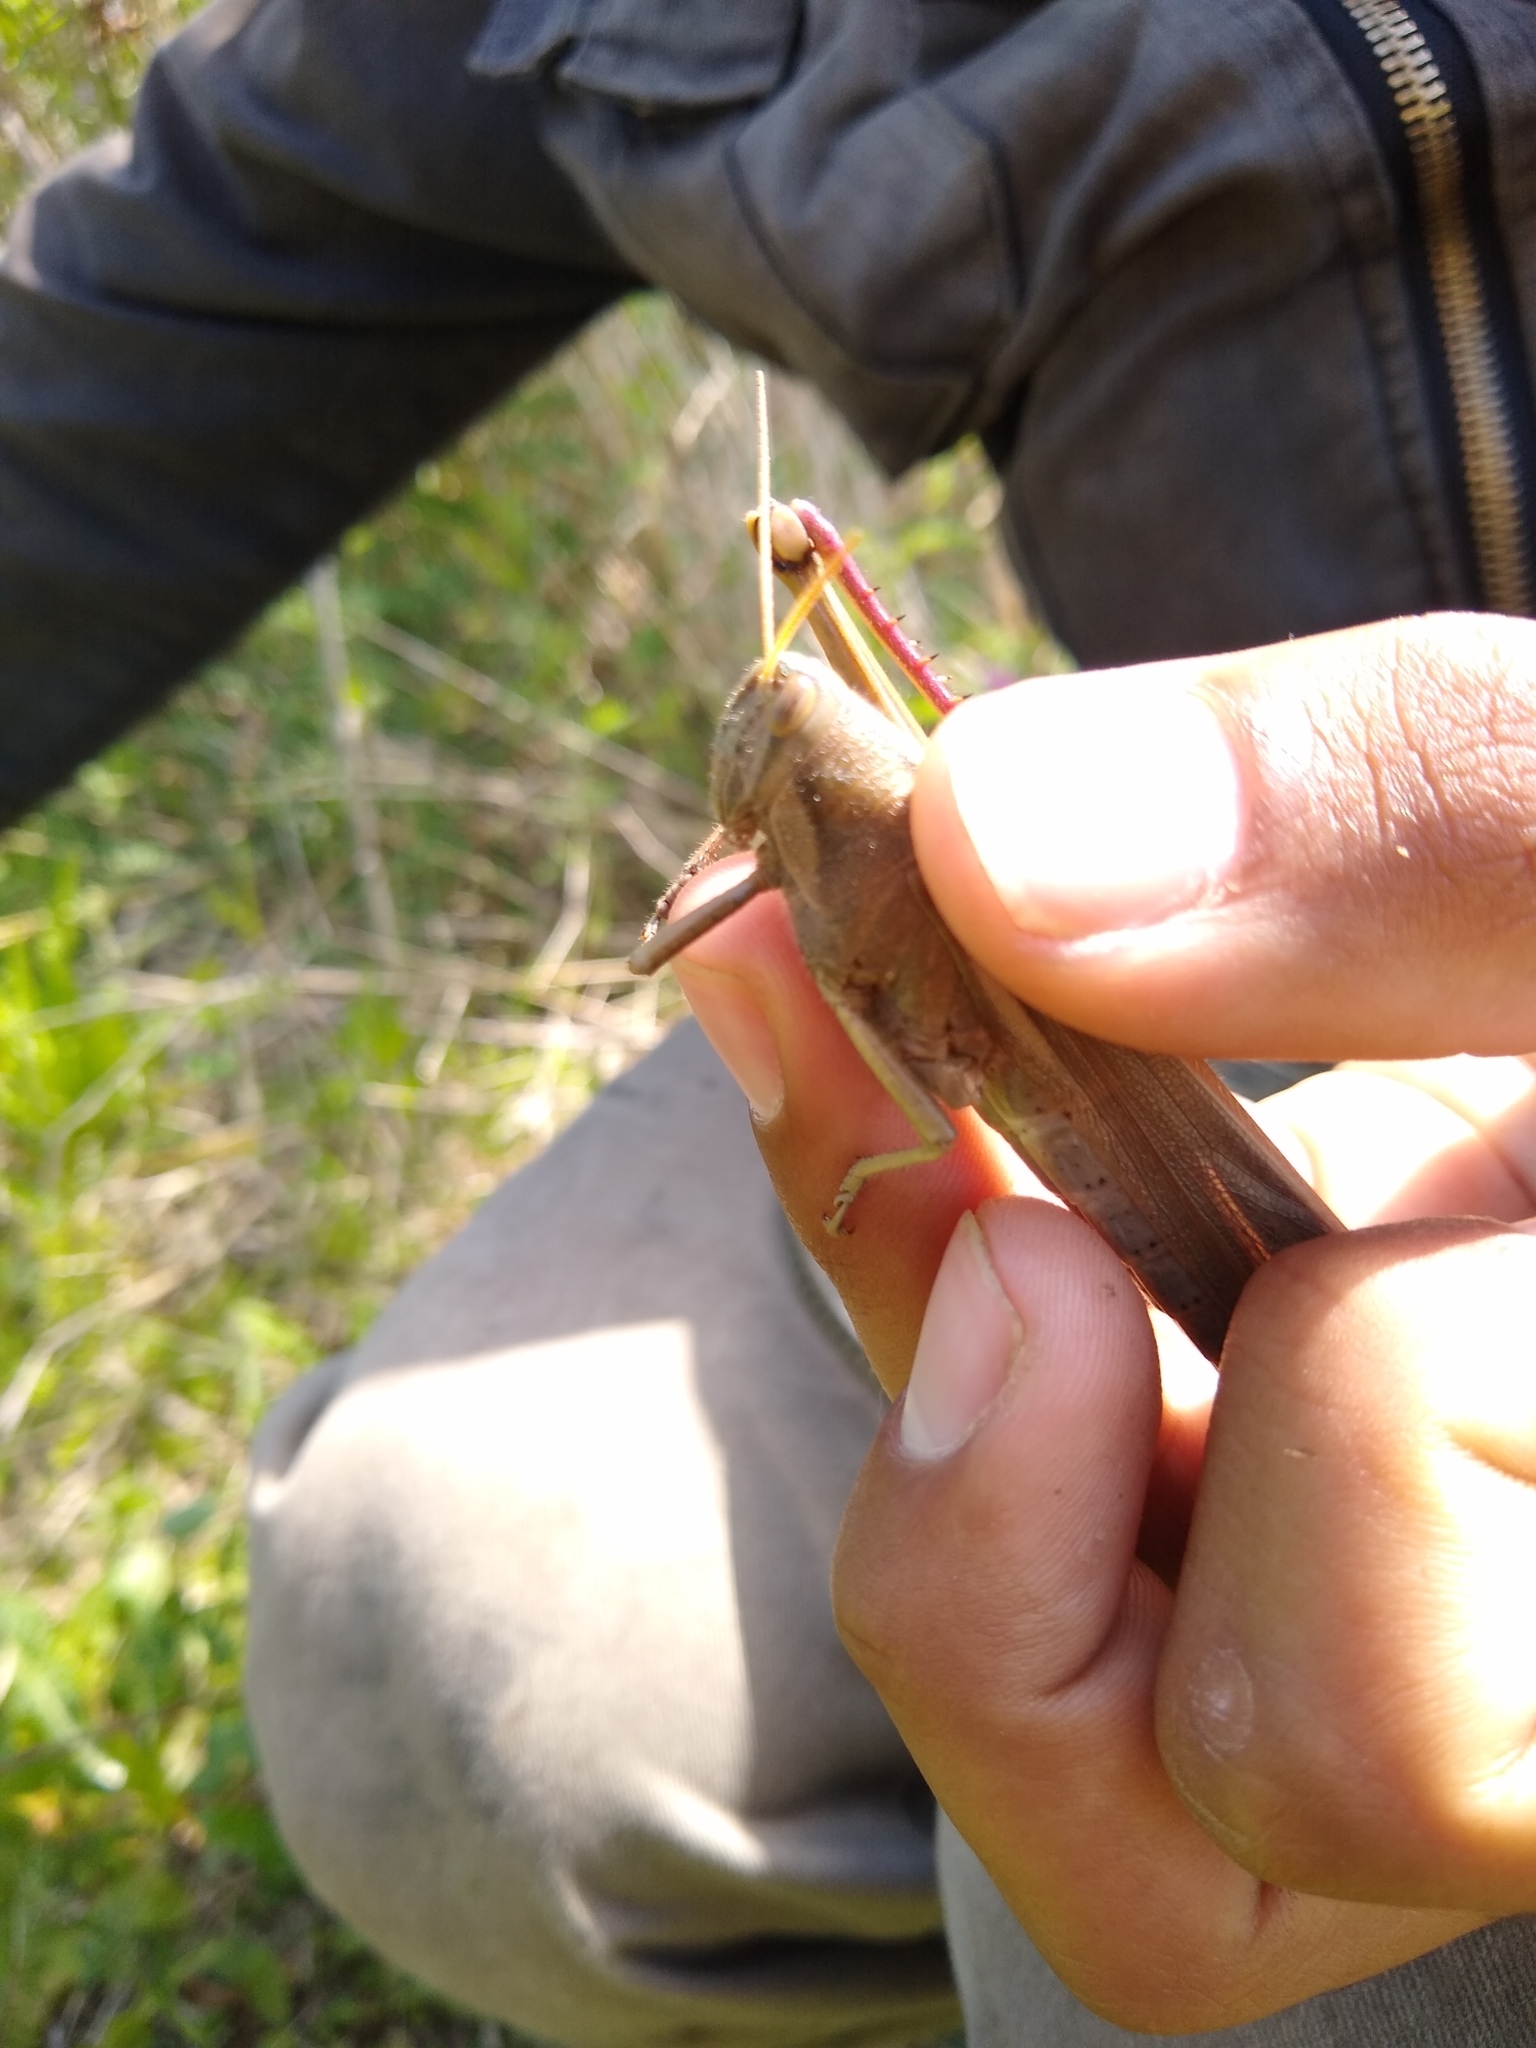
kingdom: Animalia
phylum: Arthropoda
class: Insecta
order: Orthoptera
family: Acrididae
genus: Schistocerca
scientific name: Schistocerca flavofasciata
